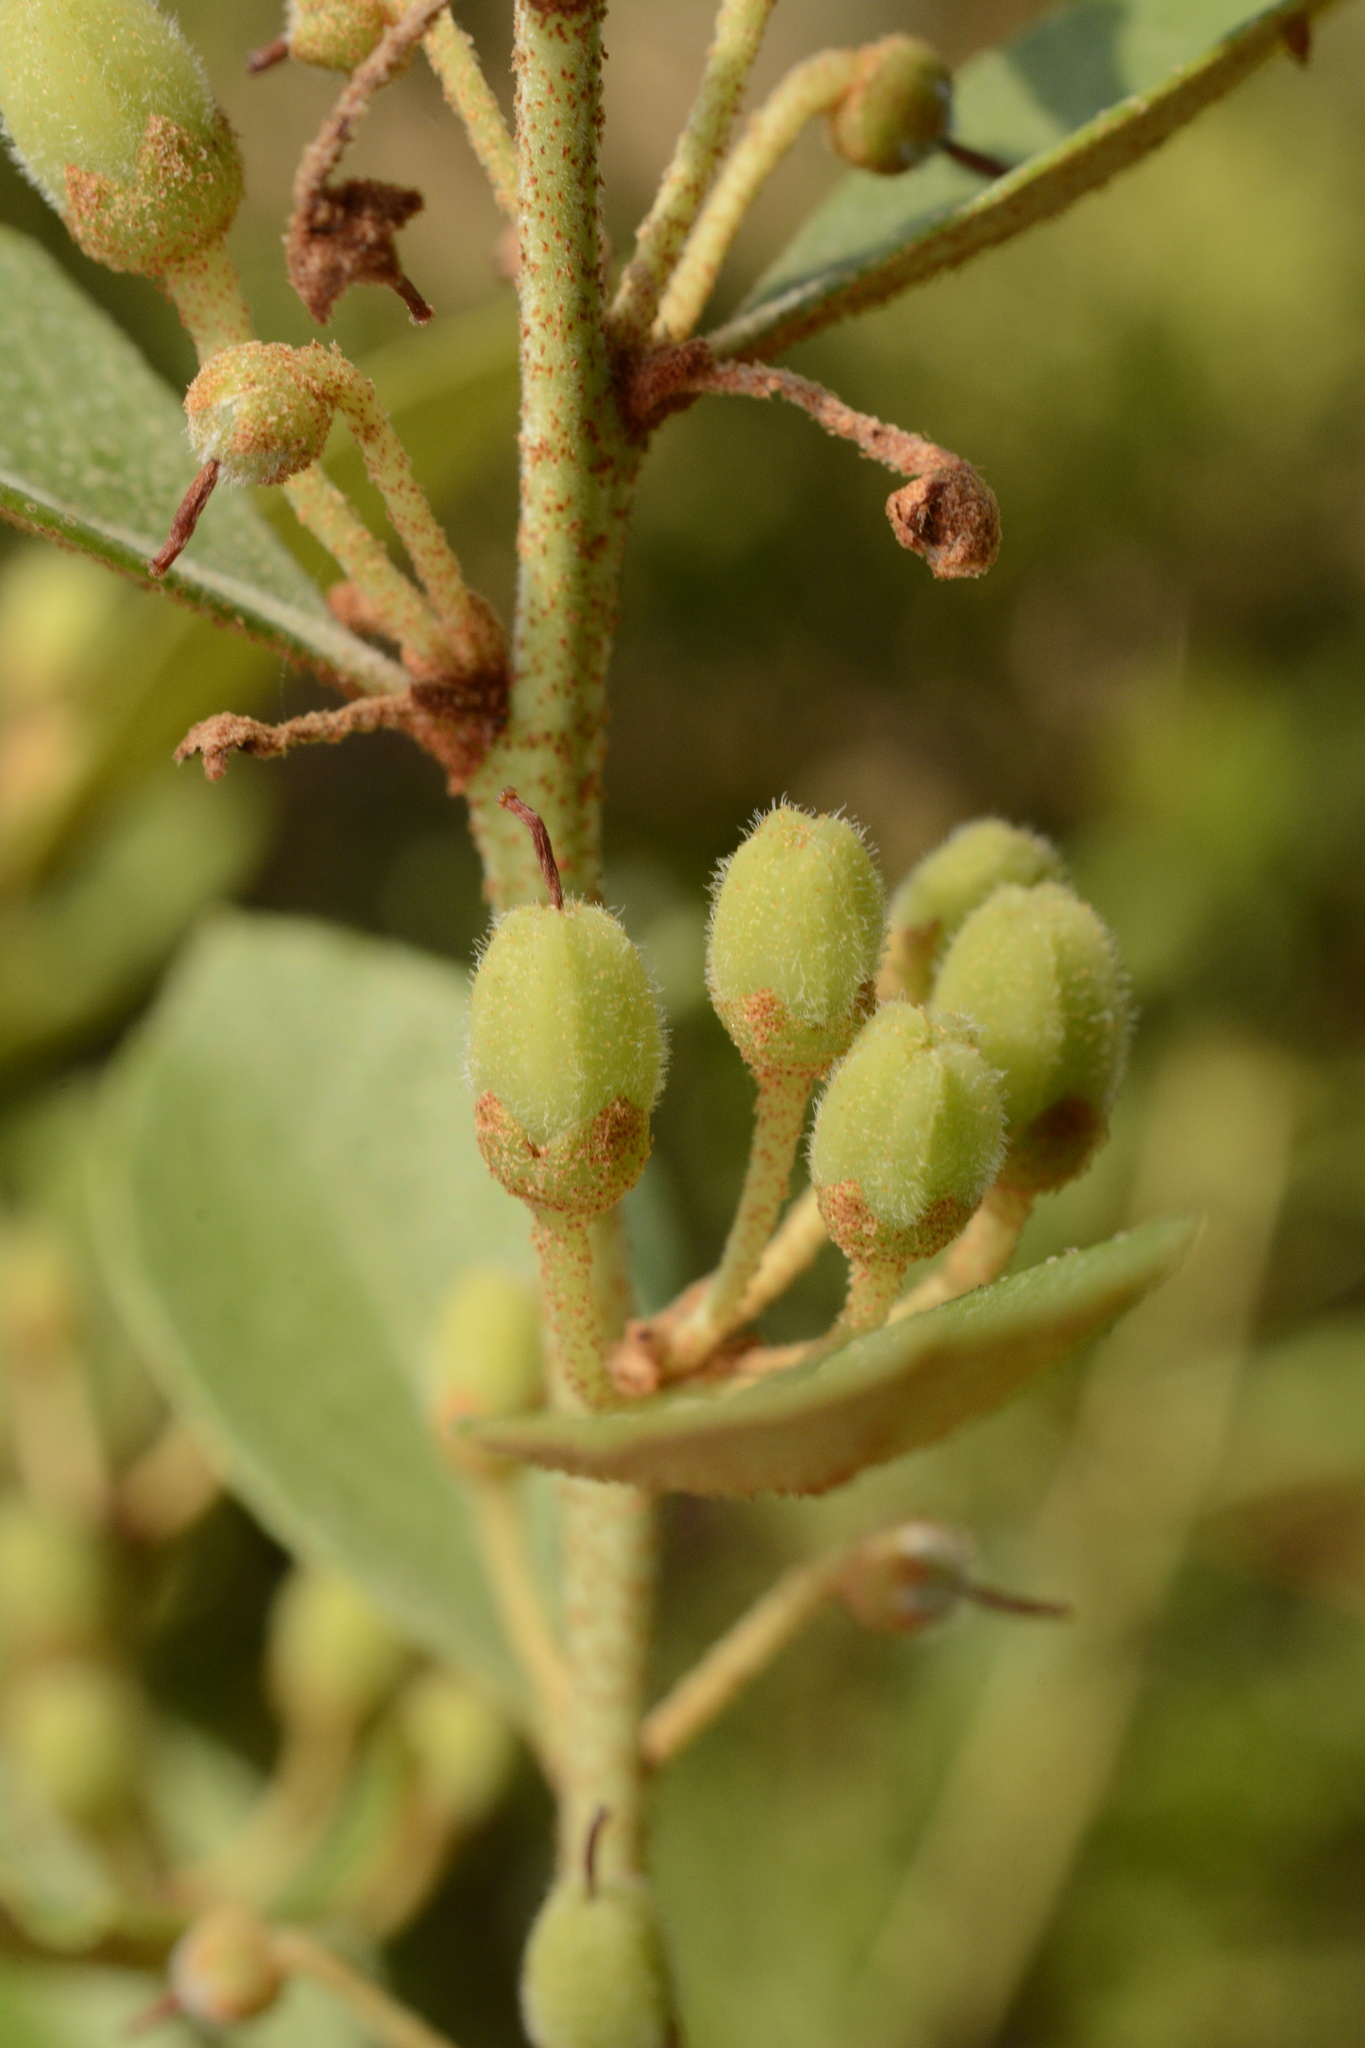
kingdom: Plantae
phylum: Tracheophyta
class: Magnoliopsida
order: Ericales
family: Ericaceae
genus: Lyonia
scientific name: Lyonia fruticosa
